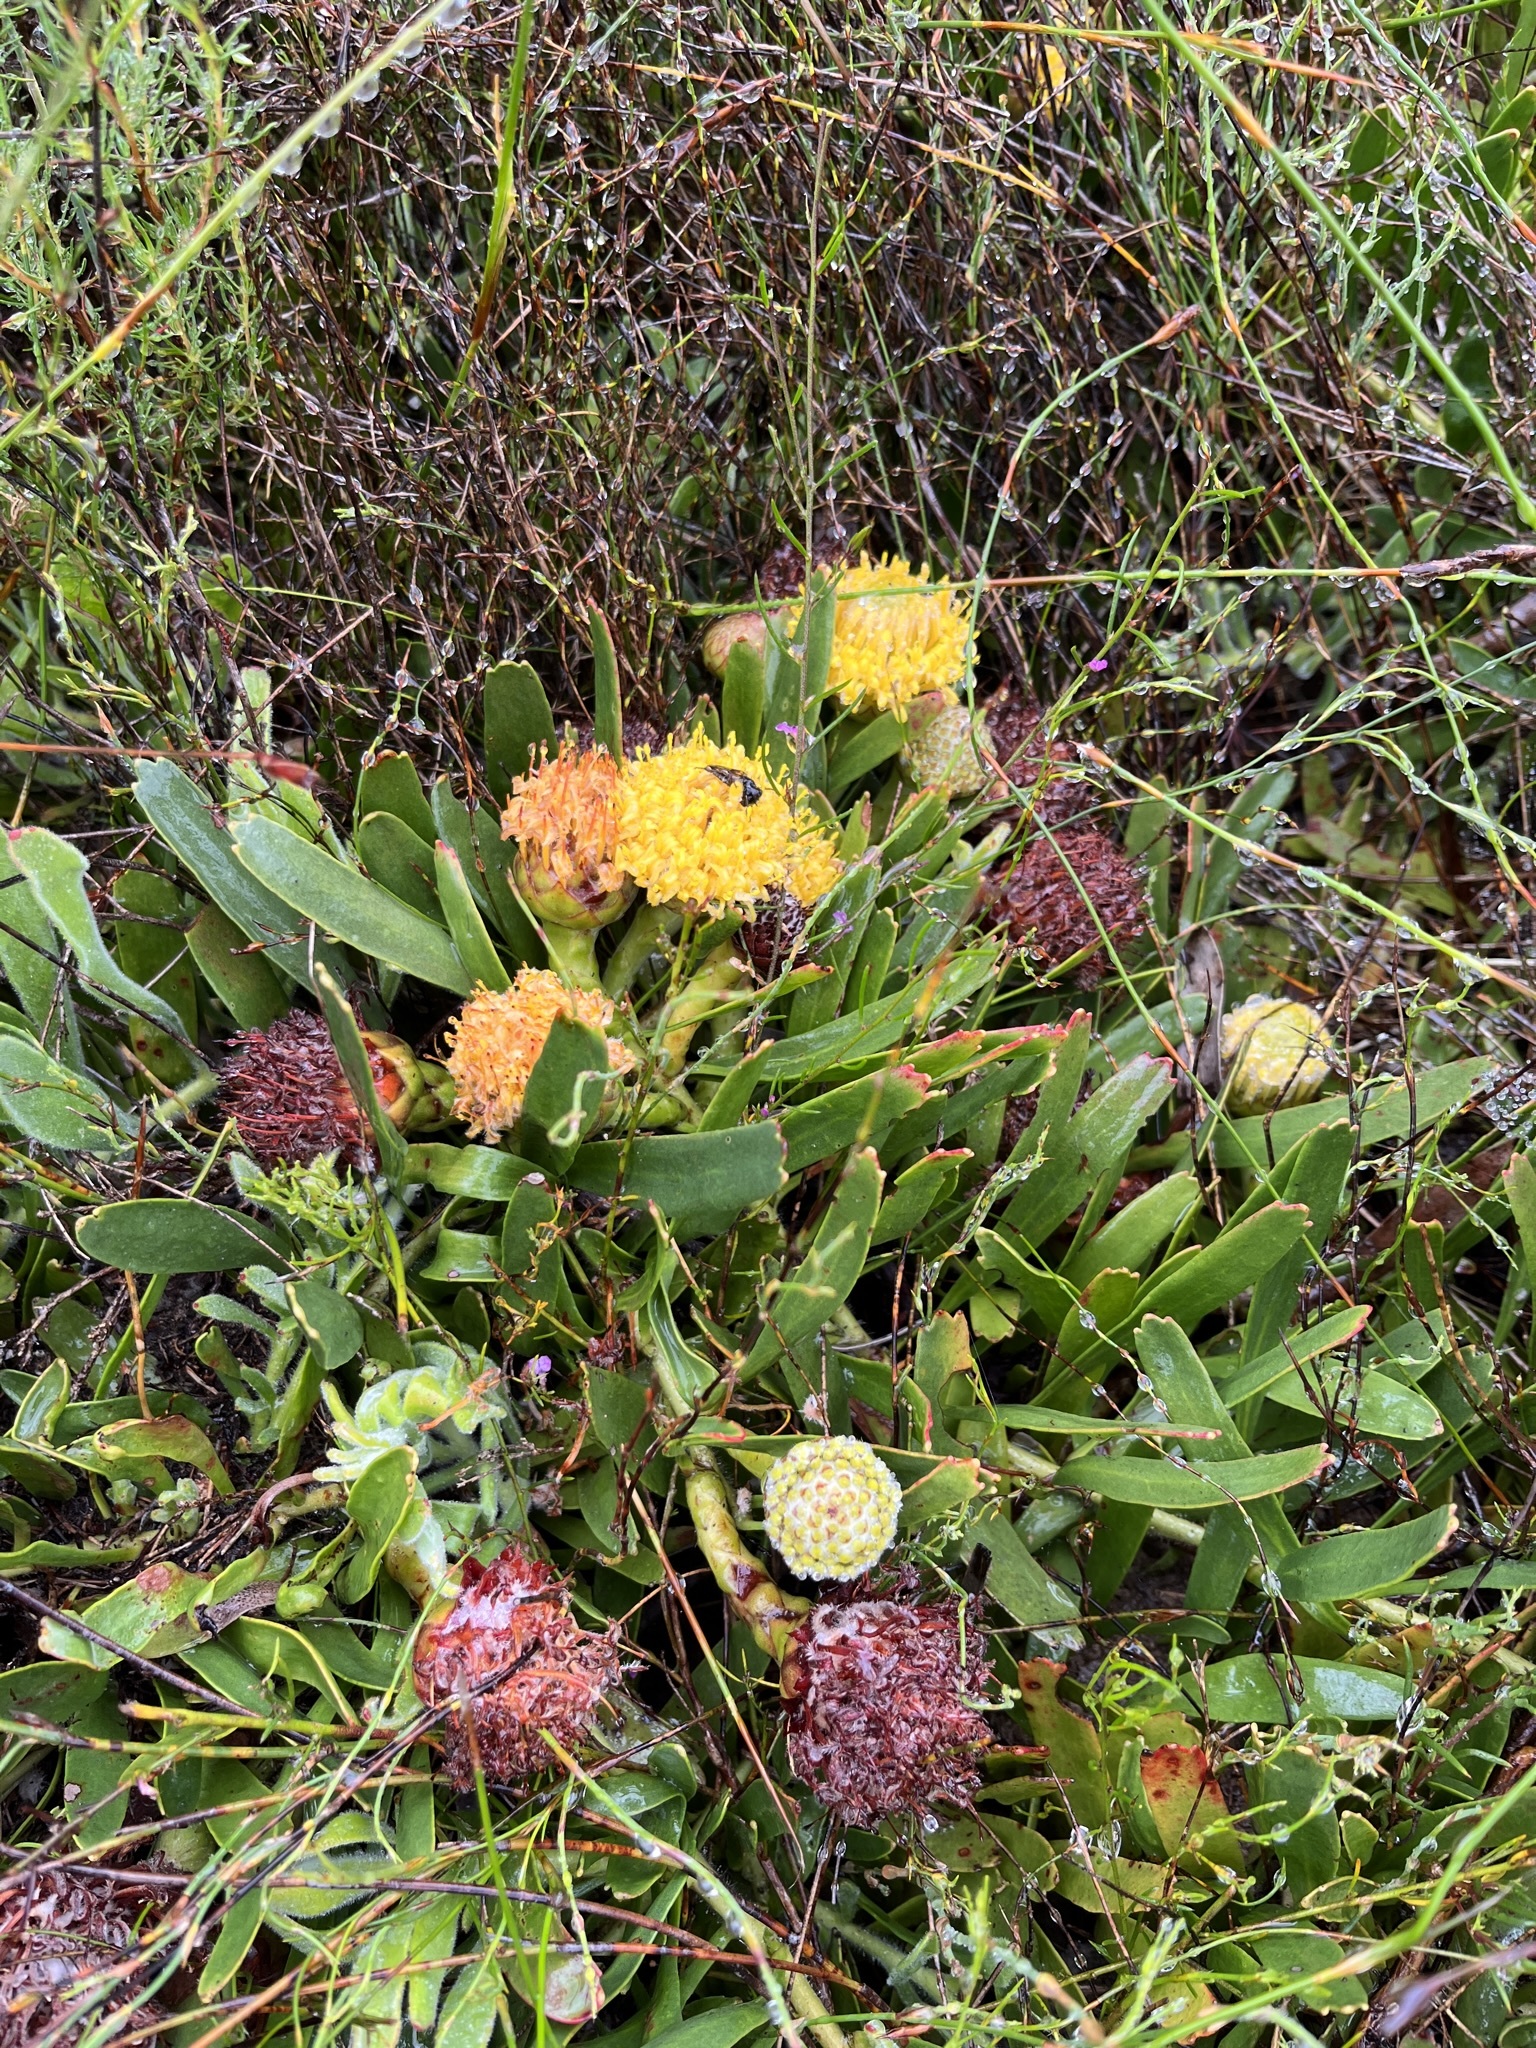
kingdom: Plantae
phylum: Tracheophyta
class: Magnoliopsida
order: Proteales
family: Proteaceae
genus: Leucospermum
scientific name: Leucospermum hypophyllocarpodendron
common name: Snakestem pincushion
